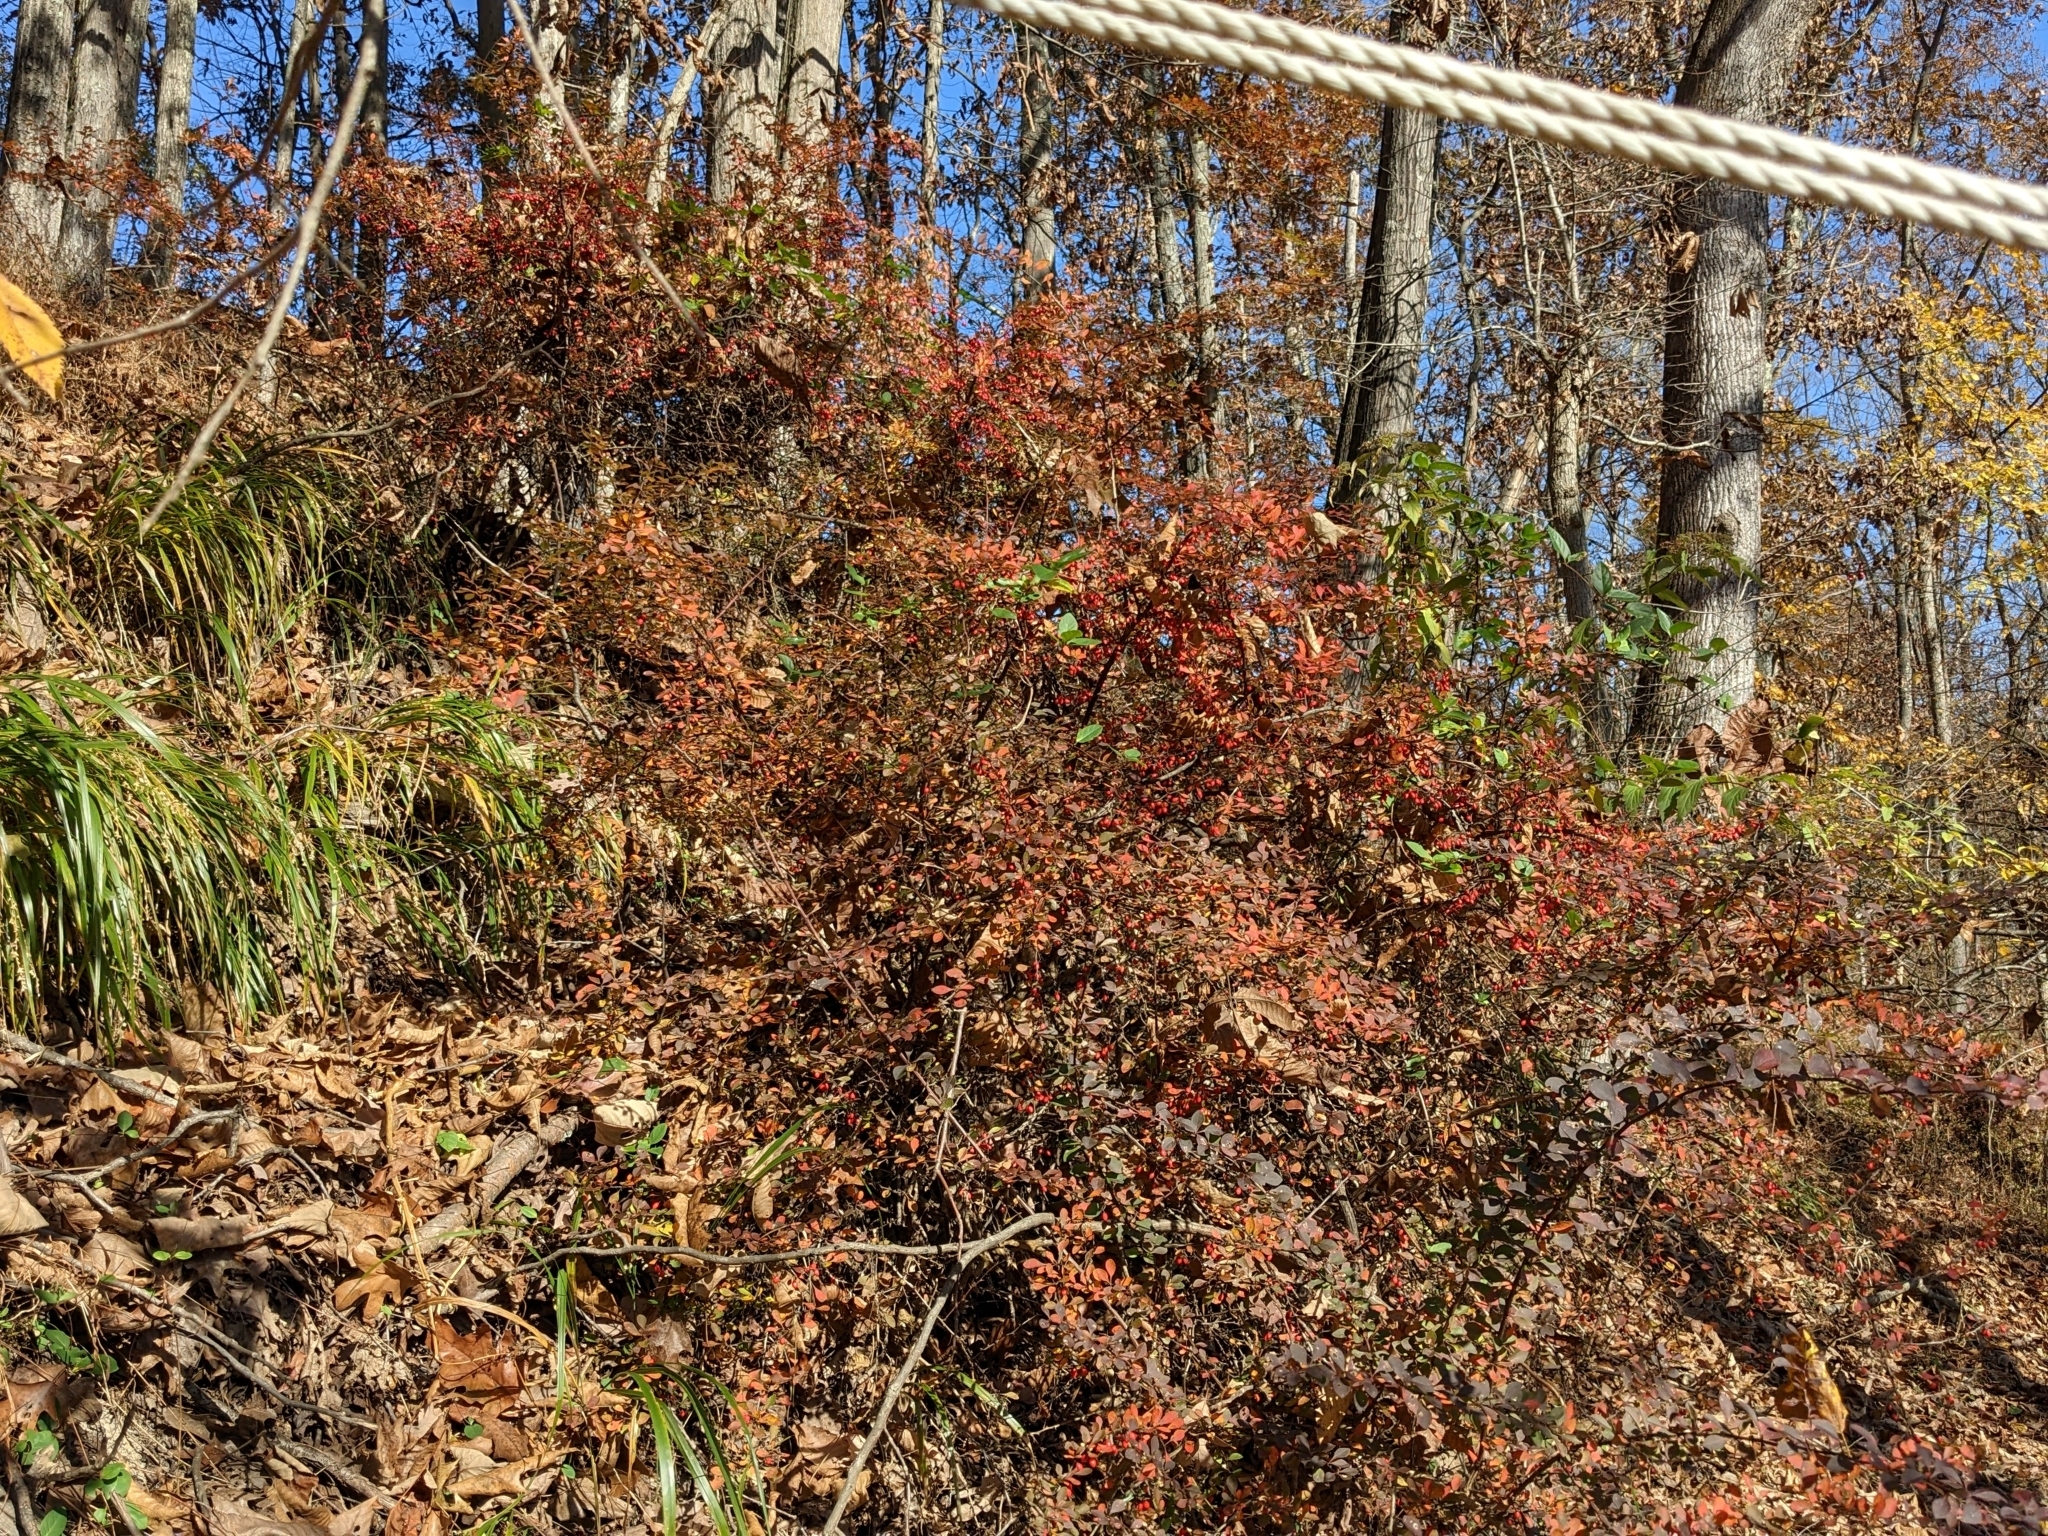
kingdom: Plantae
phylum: Tracheophyta
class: Magnoliopsida
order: Ranunculales
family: Berberidaceae
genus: Berberis
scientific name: Berberis thunbergii
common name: Japanese barberry
